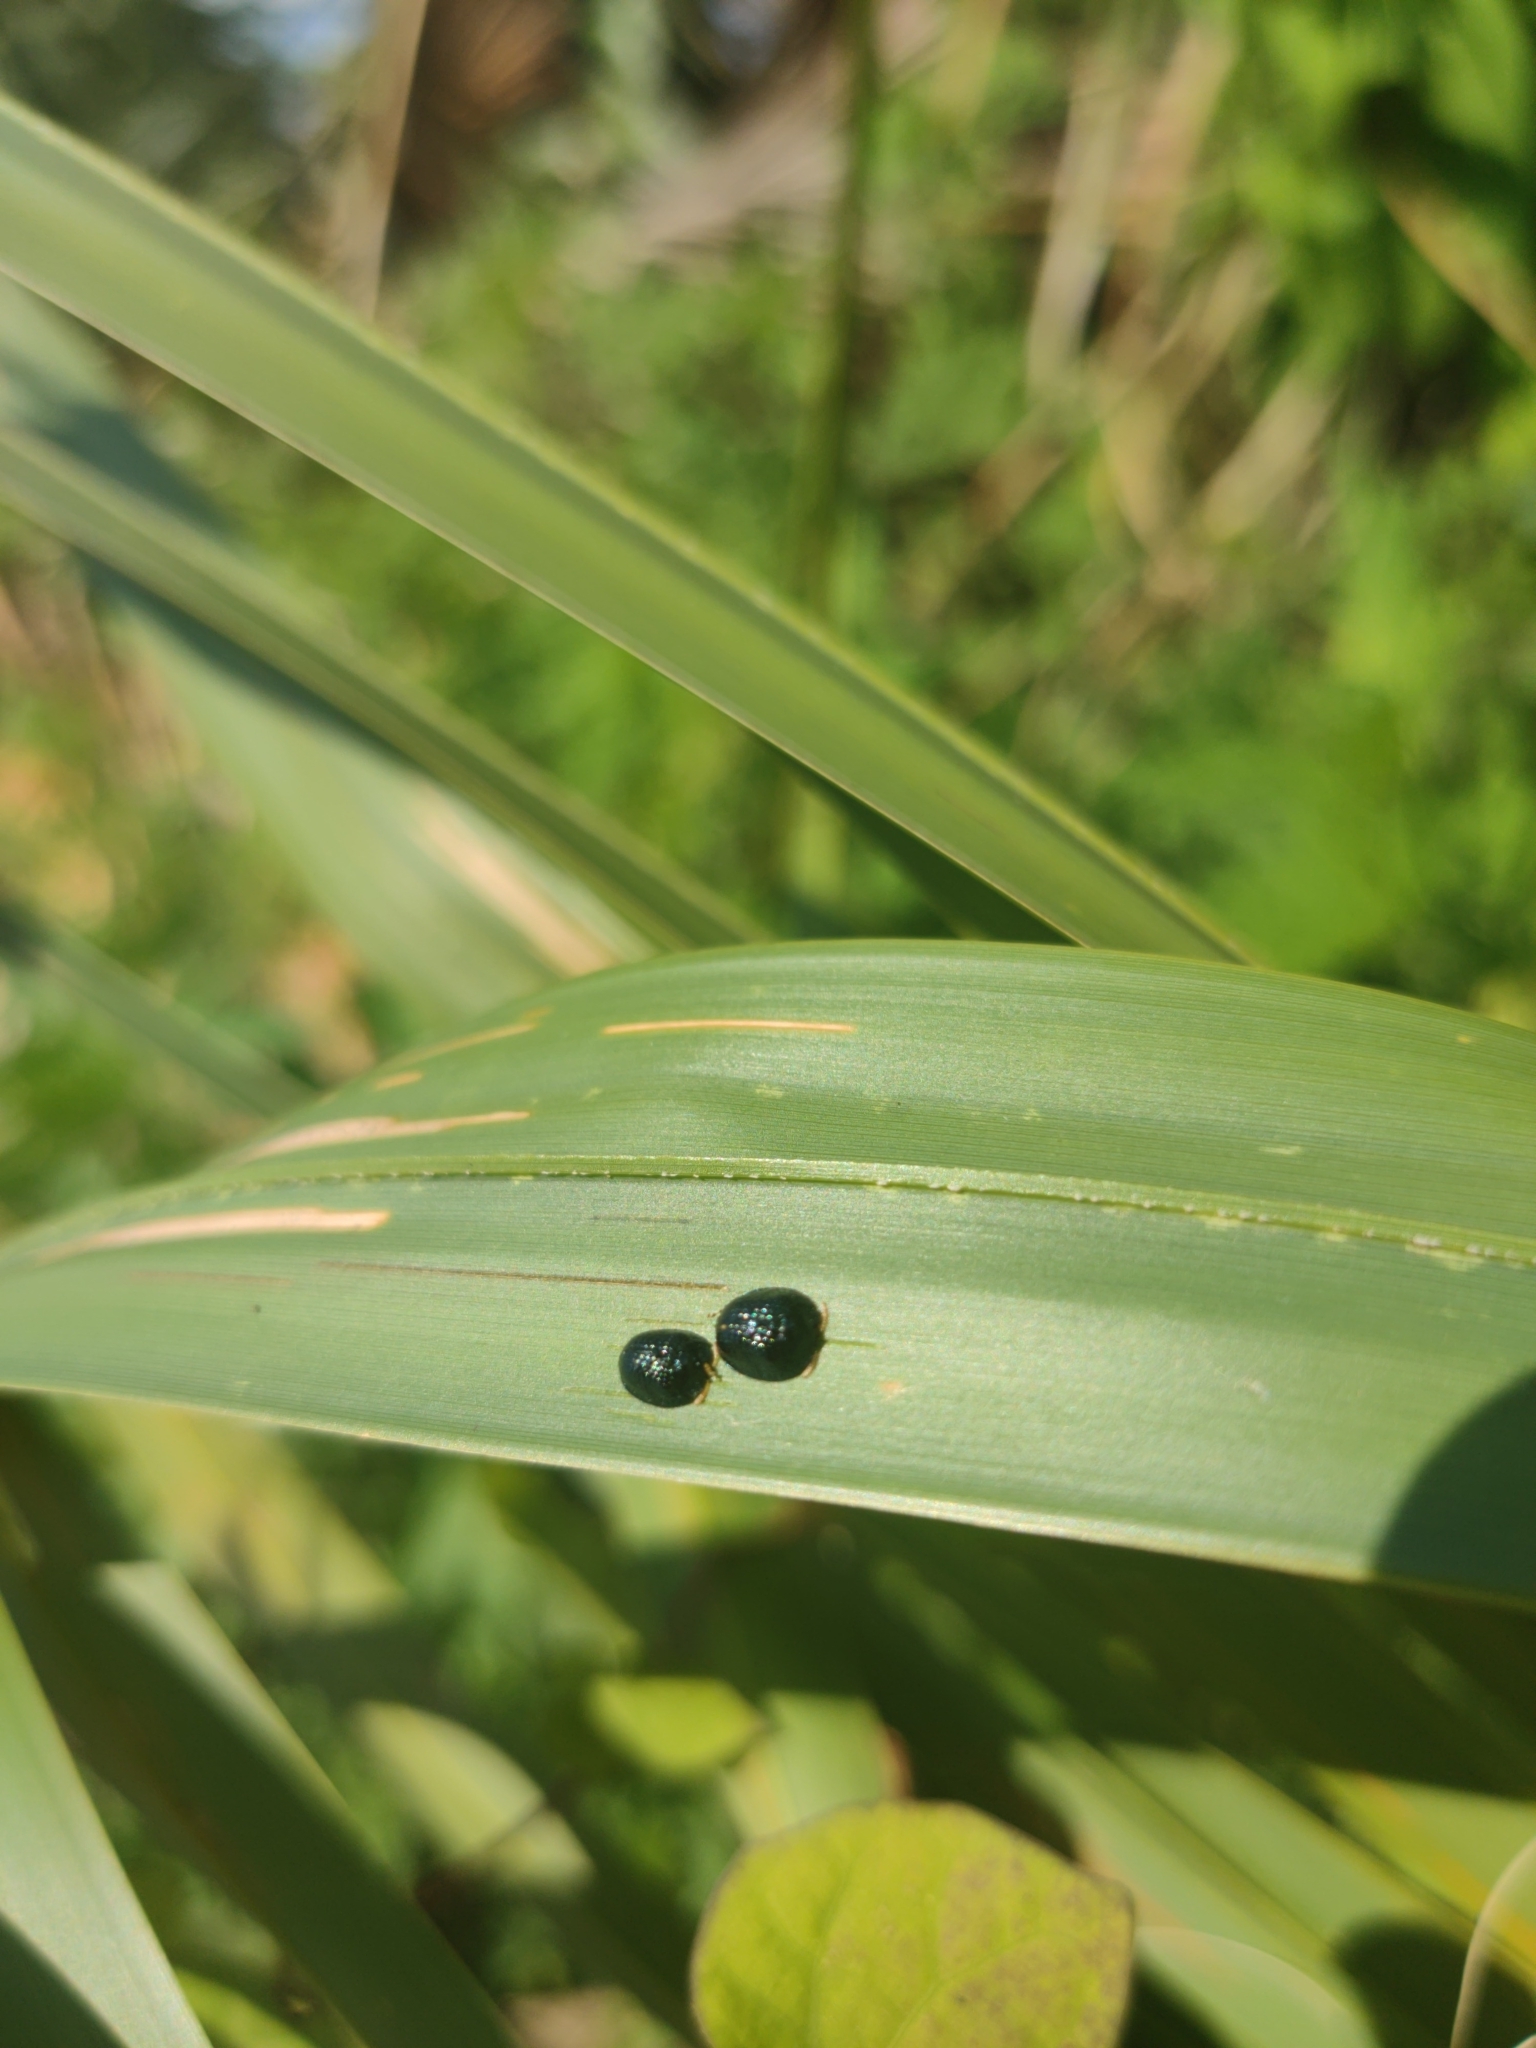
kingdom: Animalia
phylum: Arthropoda
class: Insecta
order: Coleoptera
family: Chrysomelidae
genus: Hemisphaerota
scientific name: Hemisphaerota cyanea
